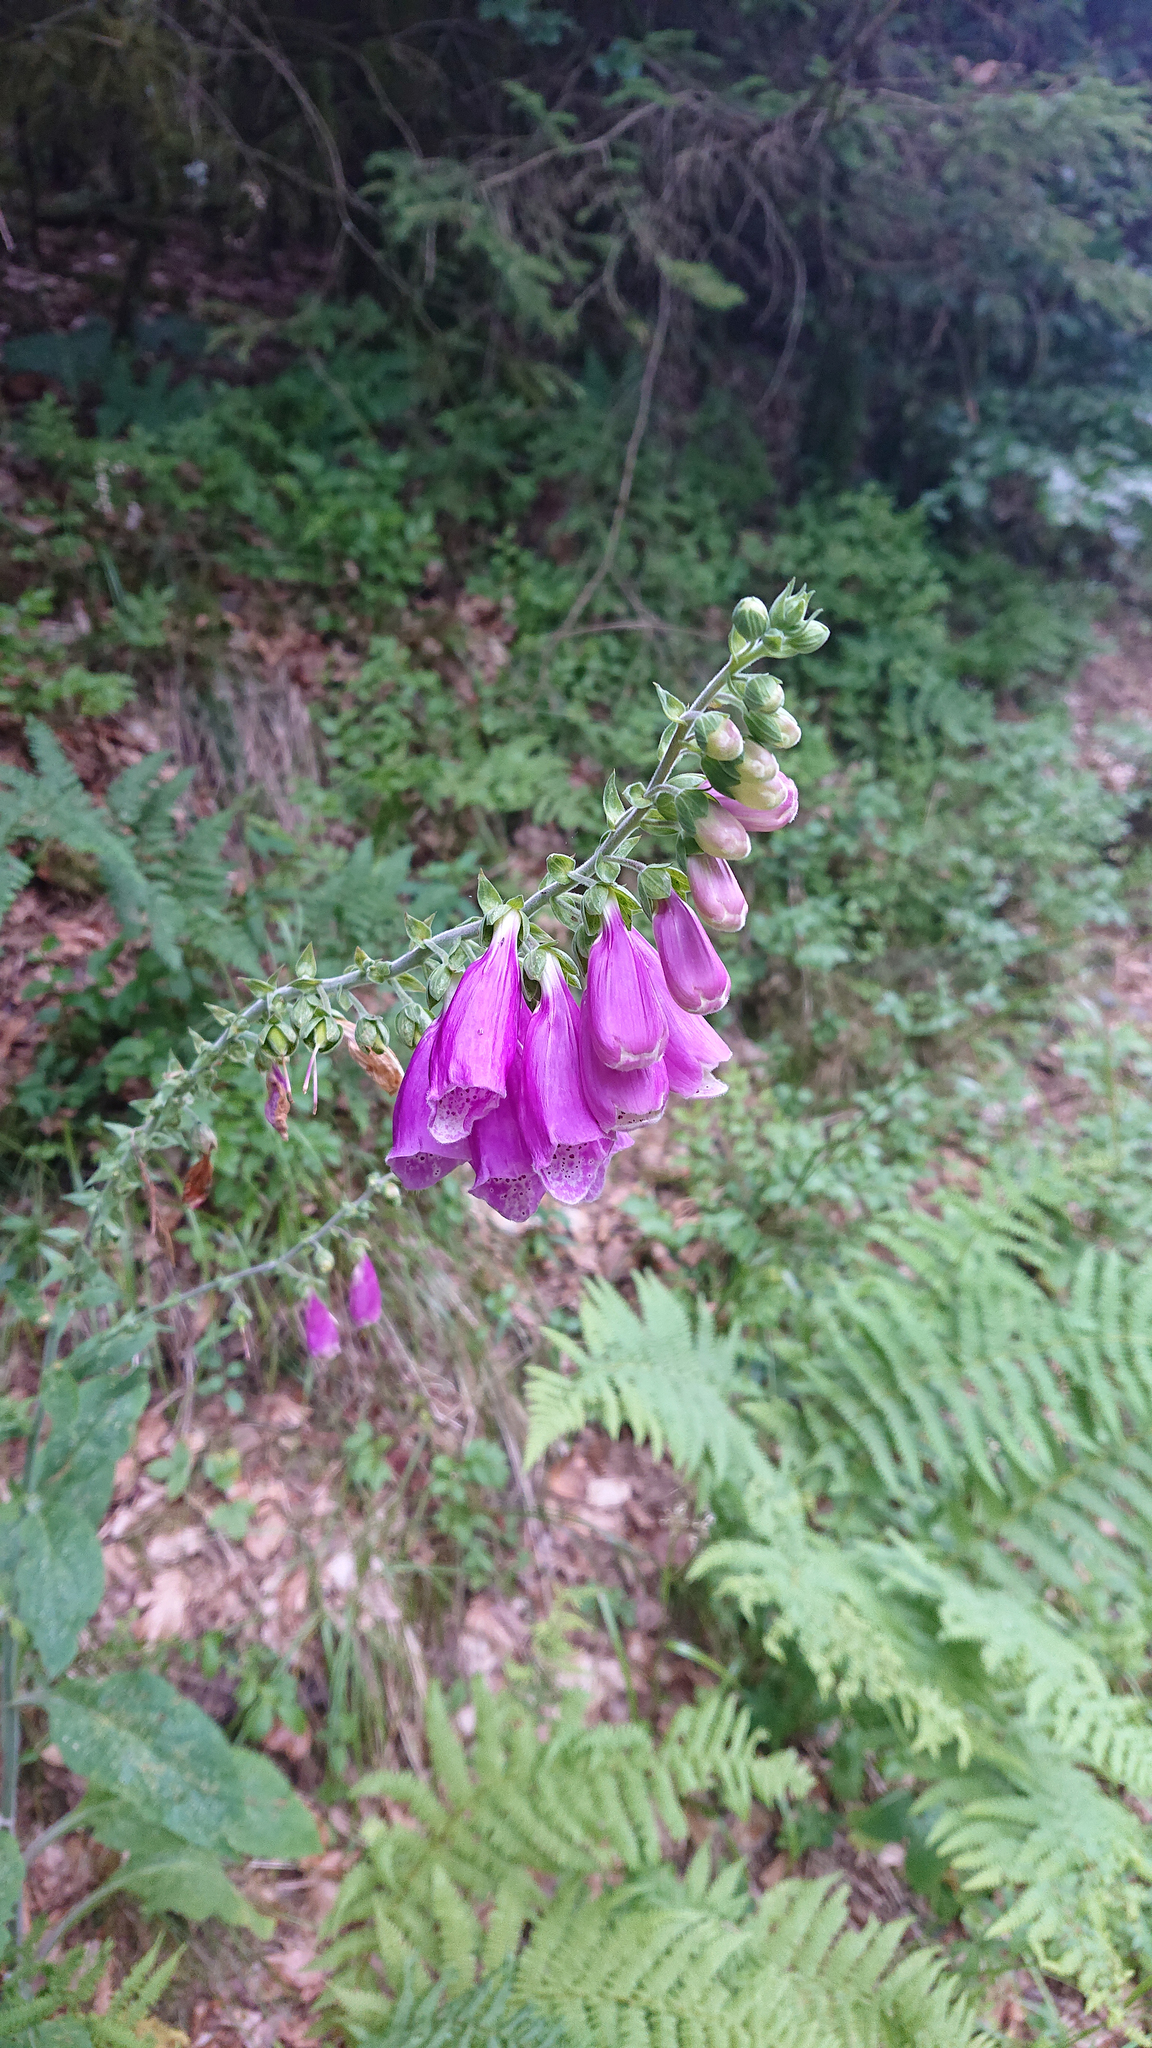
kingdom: Plantae
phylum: Tracheophyta
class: Magnoliopsida
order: Lamiales
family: Plantaginaceae
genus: Digitalis
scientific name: Digitalis purpurea
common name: Foxglove
